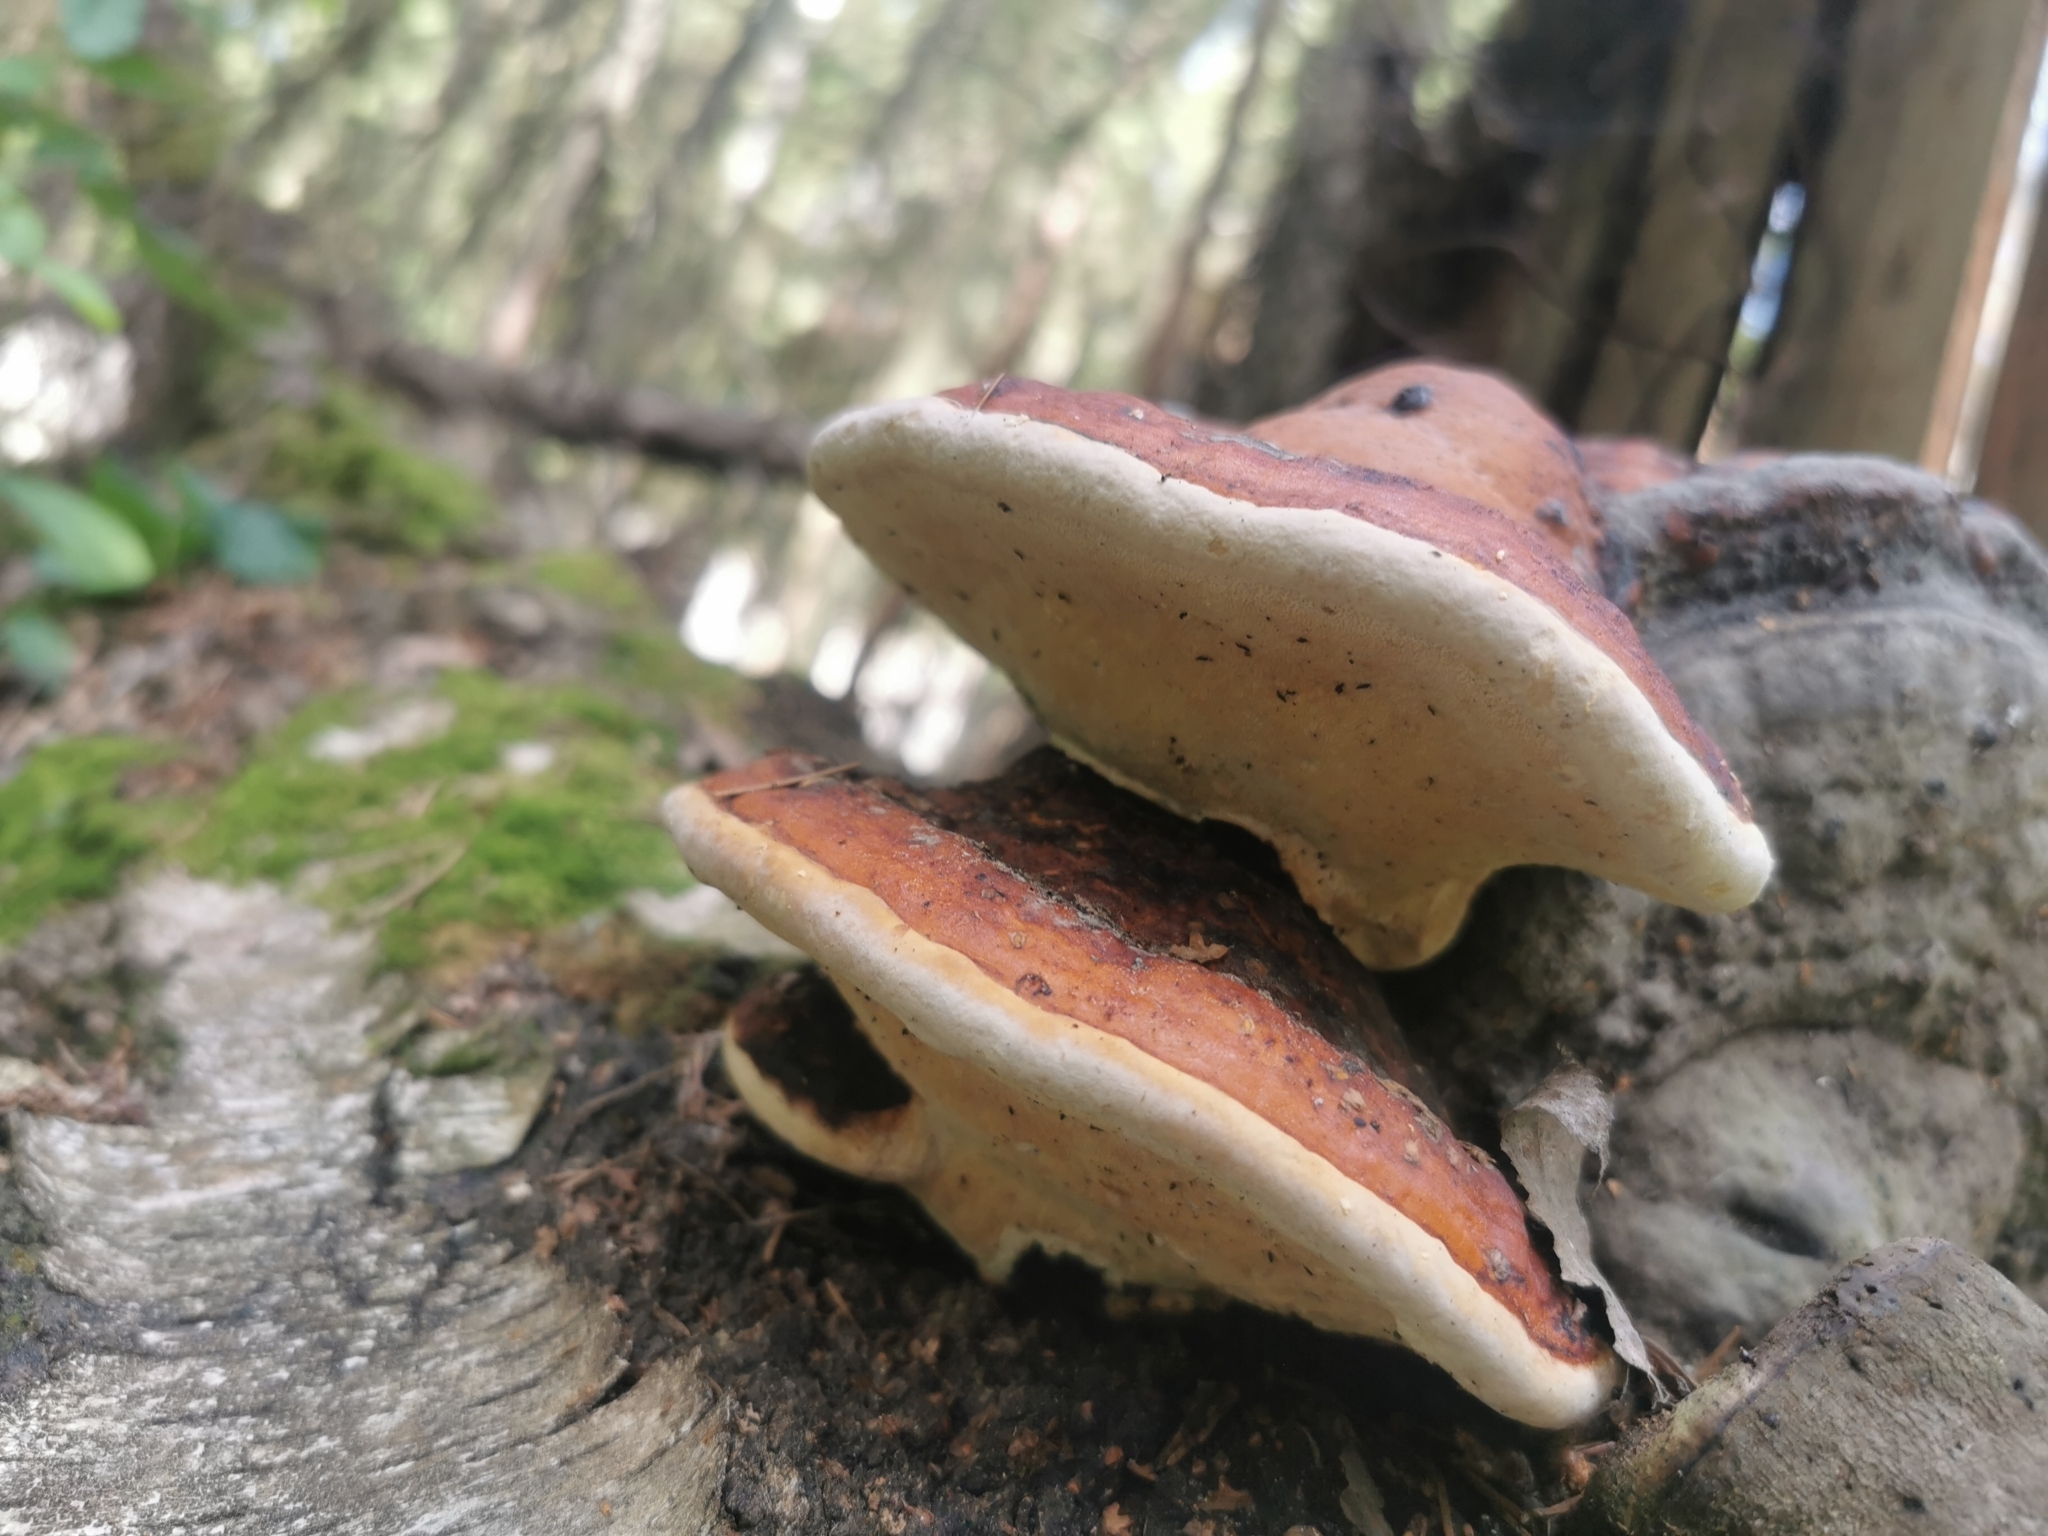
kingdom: Fungi
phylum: Basidiomycota
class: Agaricomycetes
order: Polyporales
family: Fomitopsidaceae
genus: Fomitopsis
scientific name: Fomitopsis pinicola
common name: Red-belted bracket
